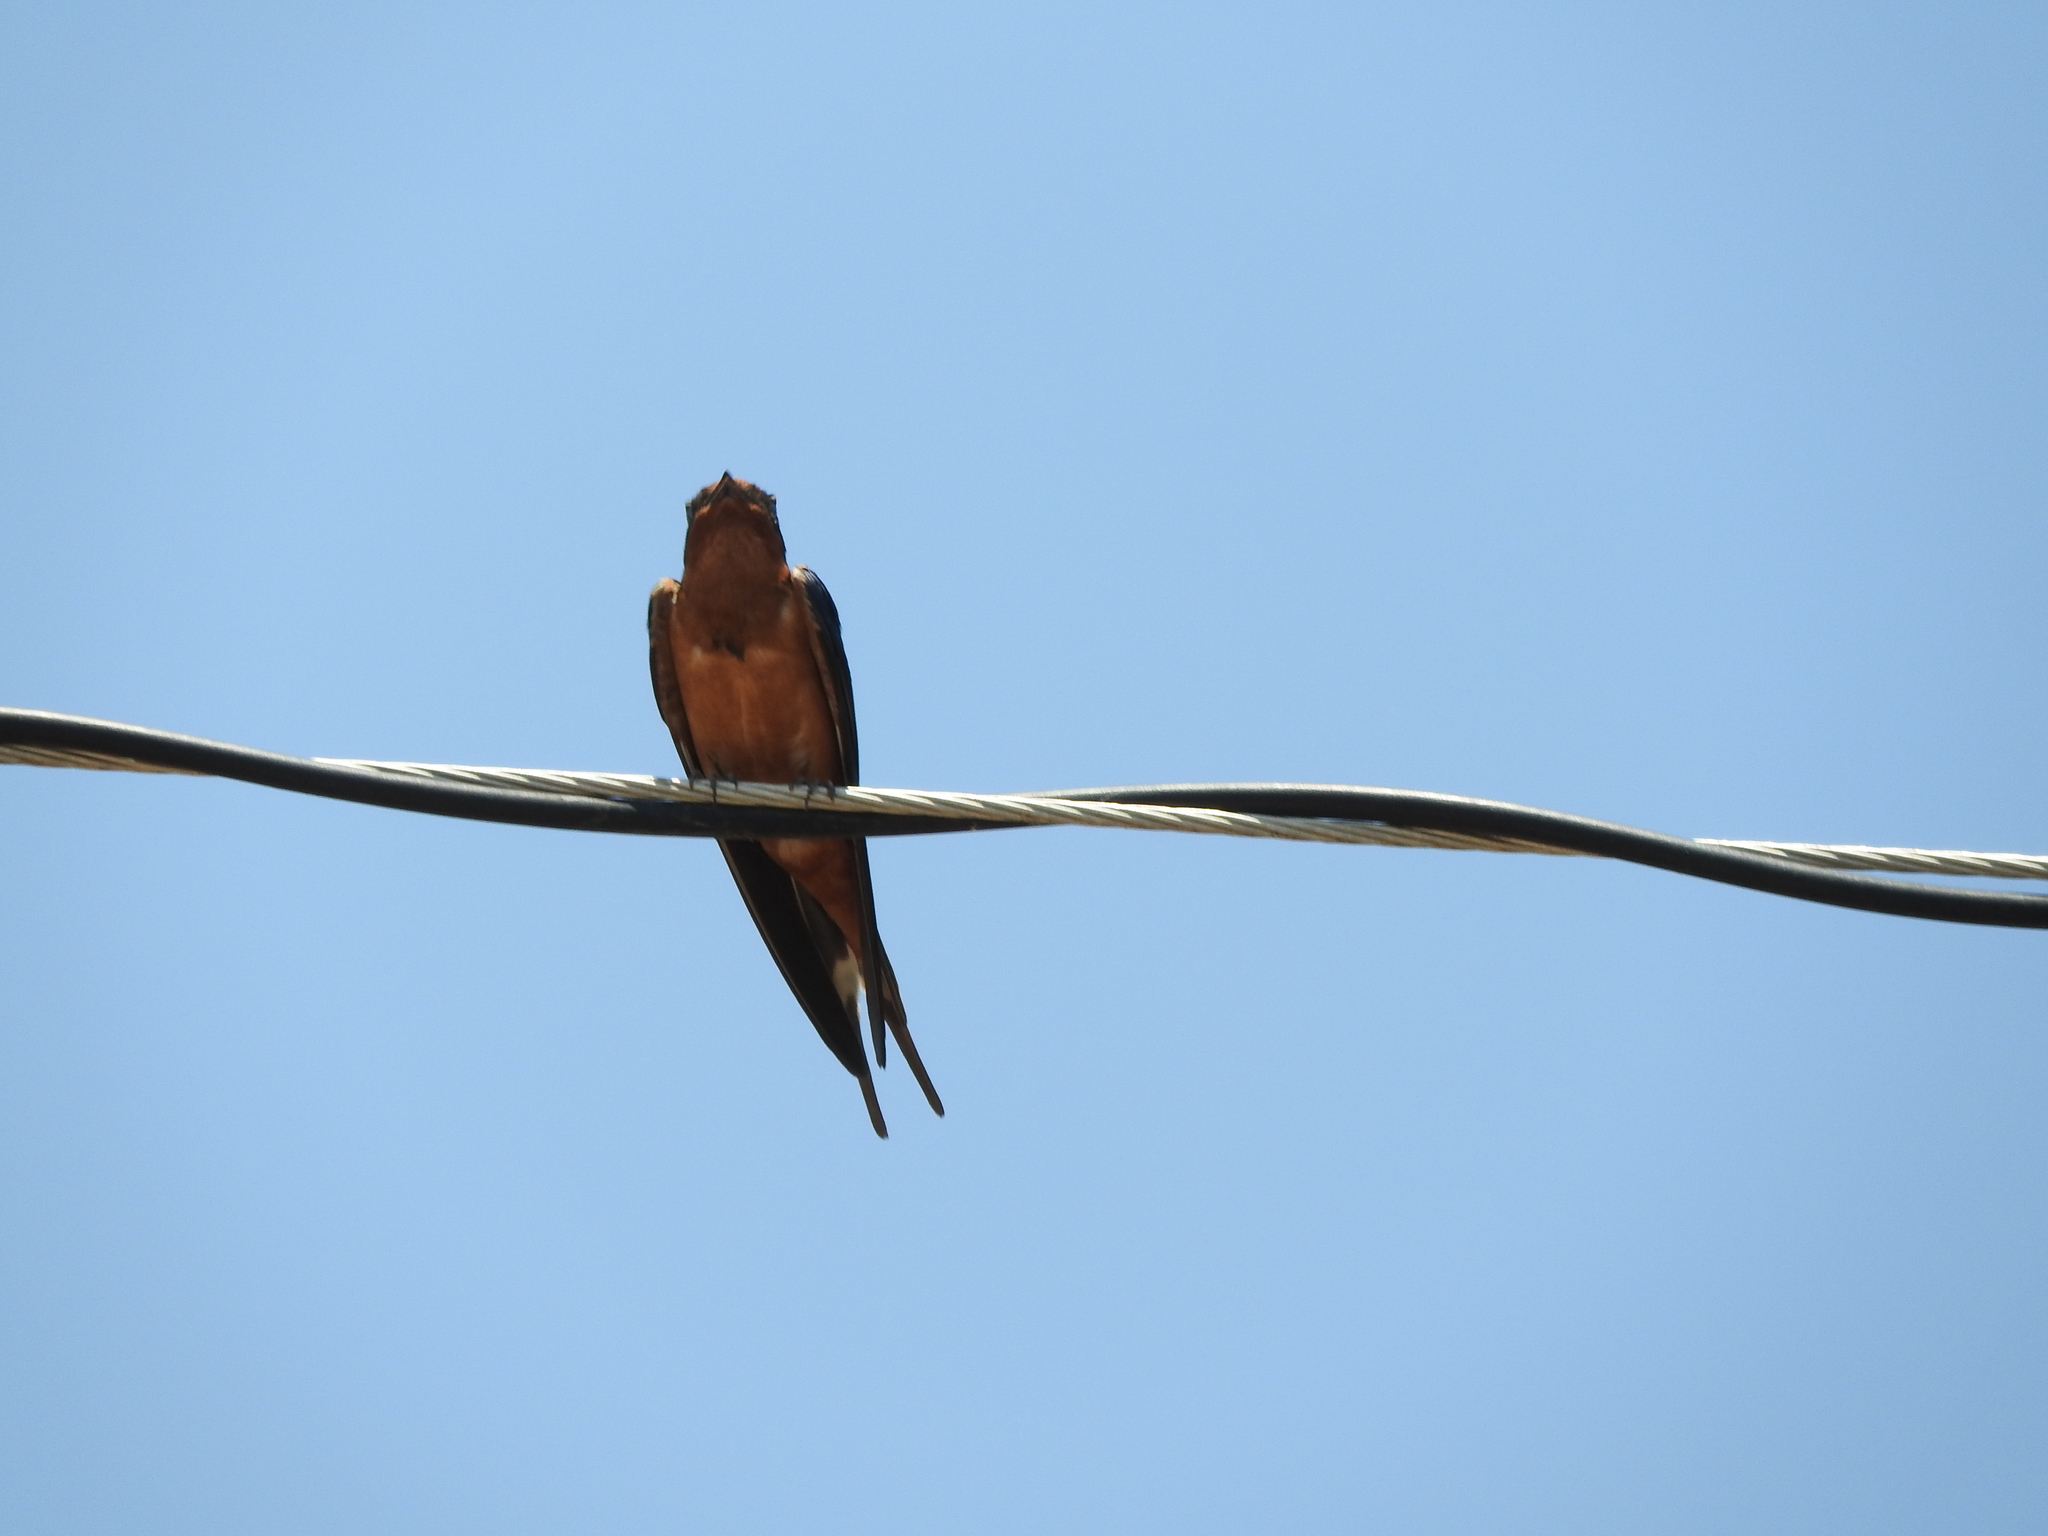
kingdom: Animalia
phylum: Chordata
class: Aves
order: Passeriformes
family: Hirundinidae
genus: Hirundo
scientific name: Hirundo rustica
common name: Barn swallow
